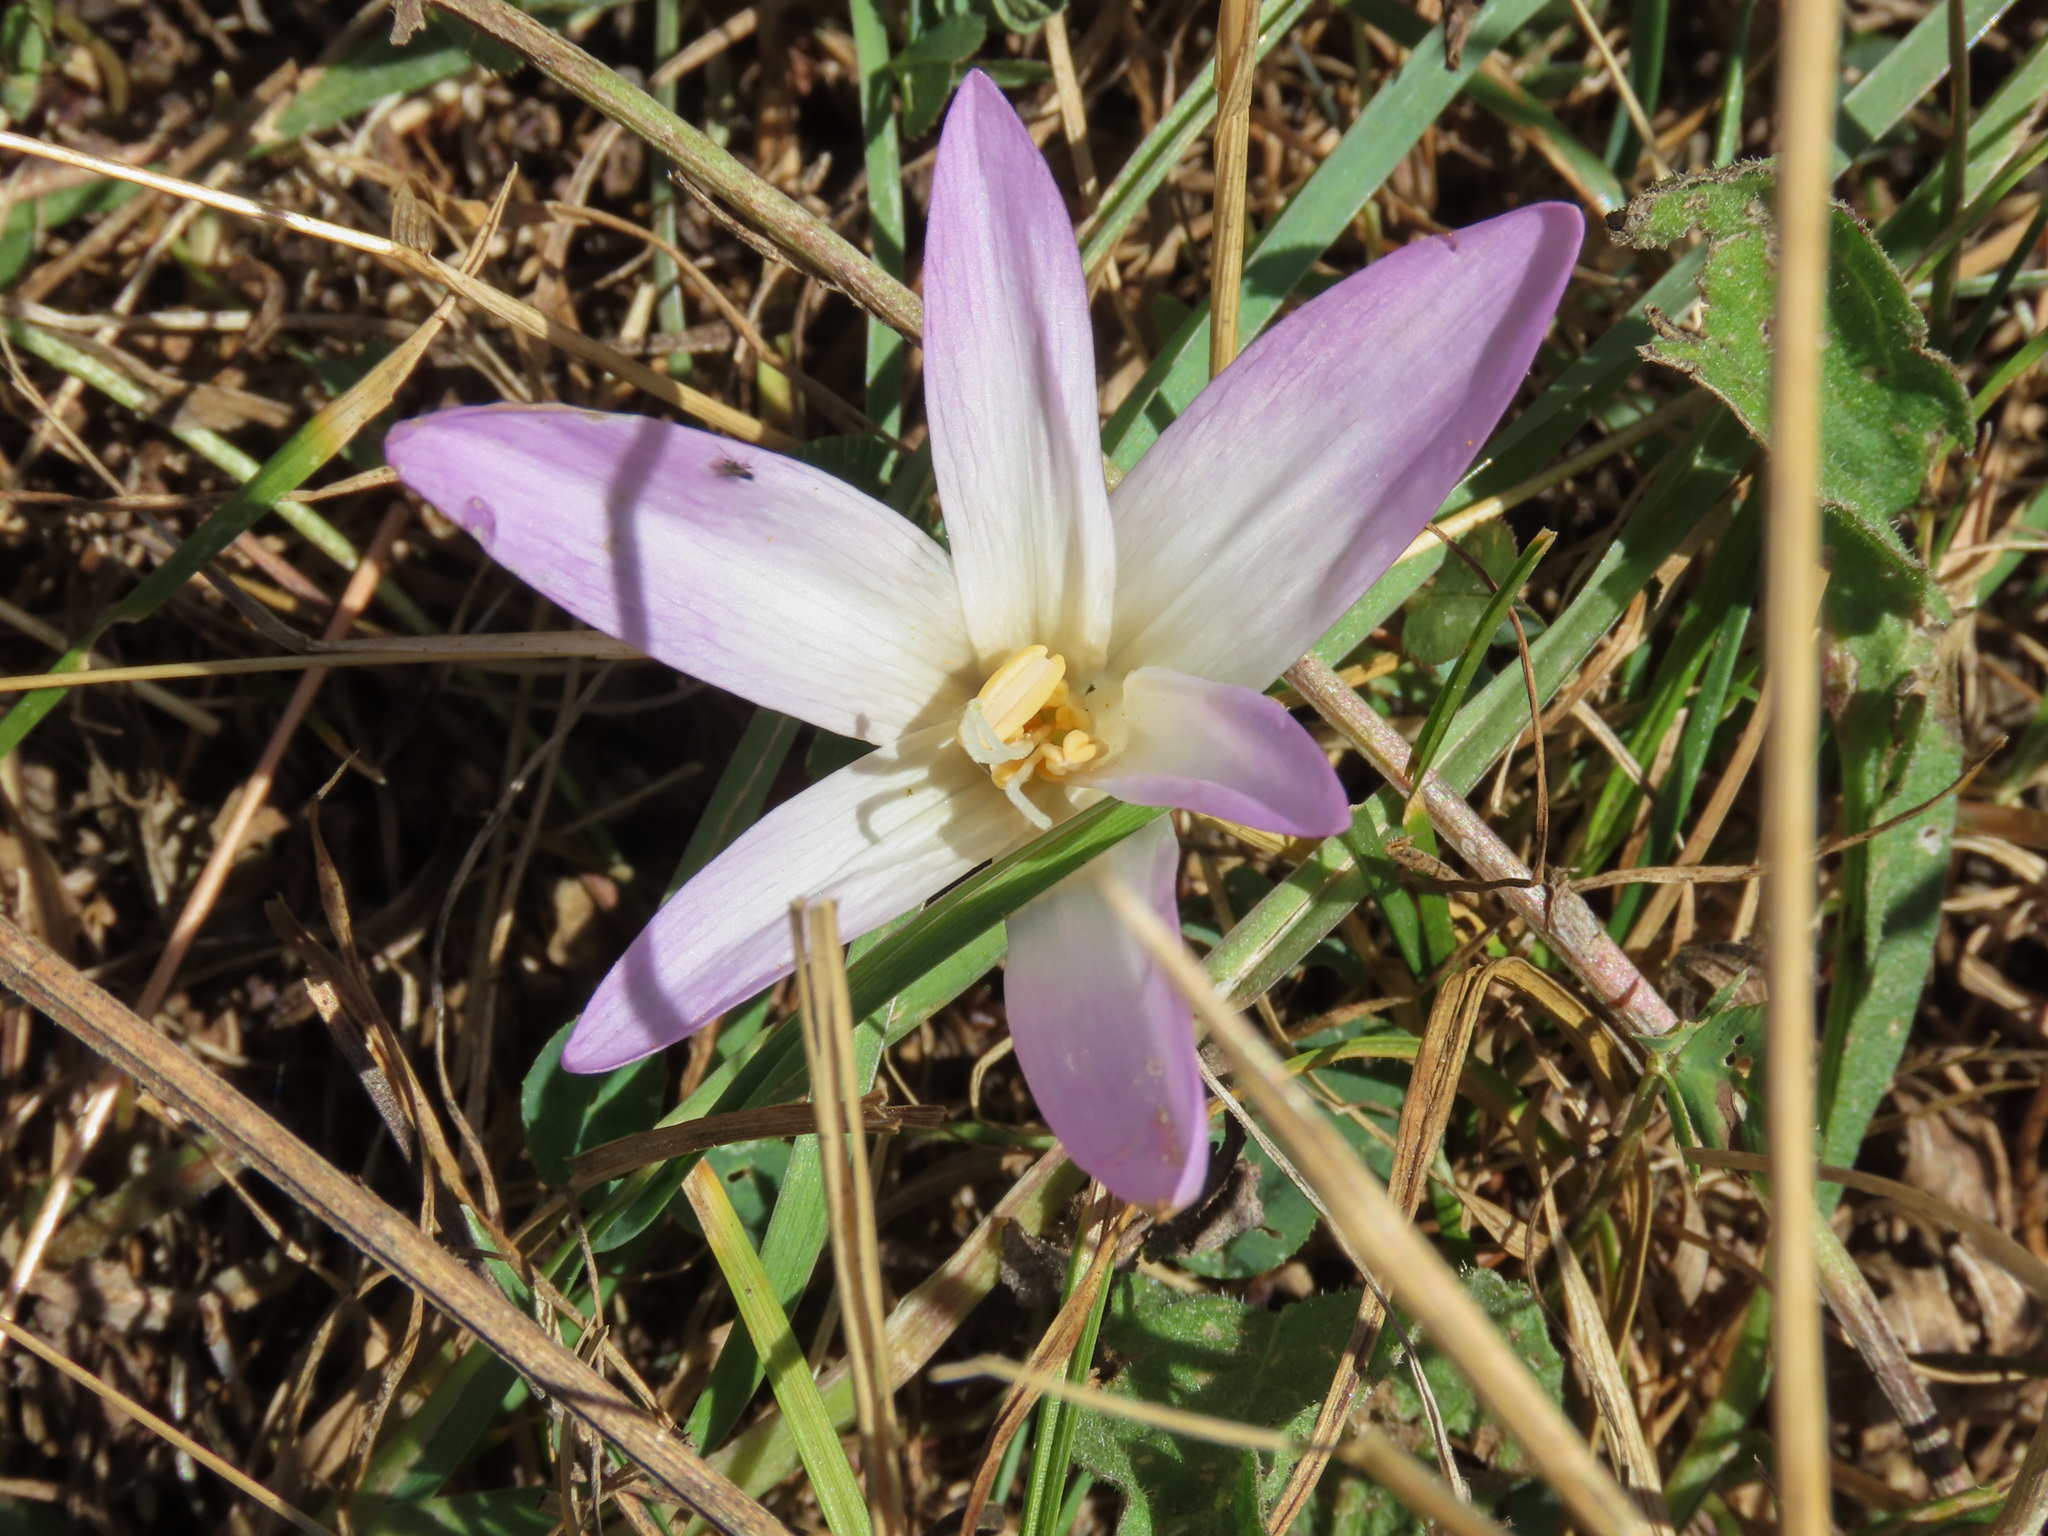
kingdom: Plantae
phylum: Tracheophyta
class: Liliopsida
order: Liliales
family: Colchicaceae
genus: Colchicum
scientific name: Colchicum lusitanum
